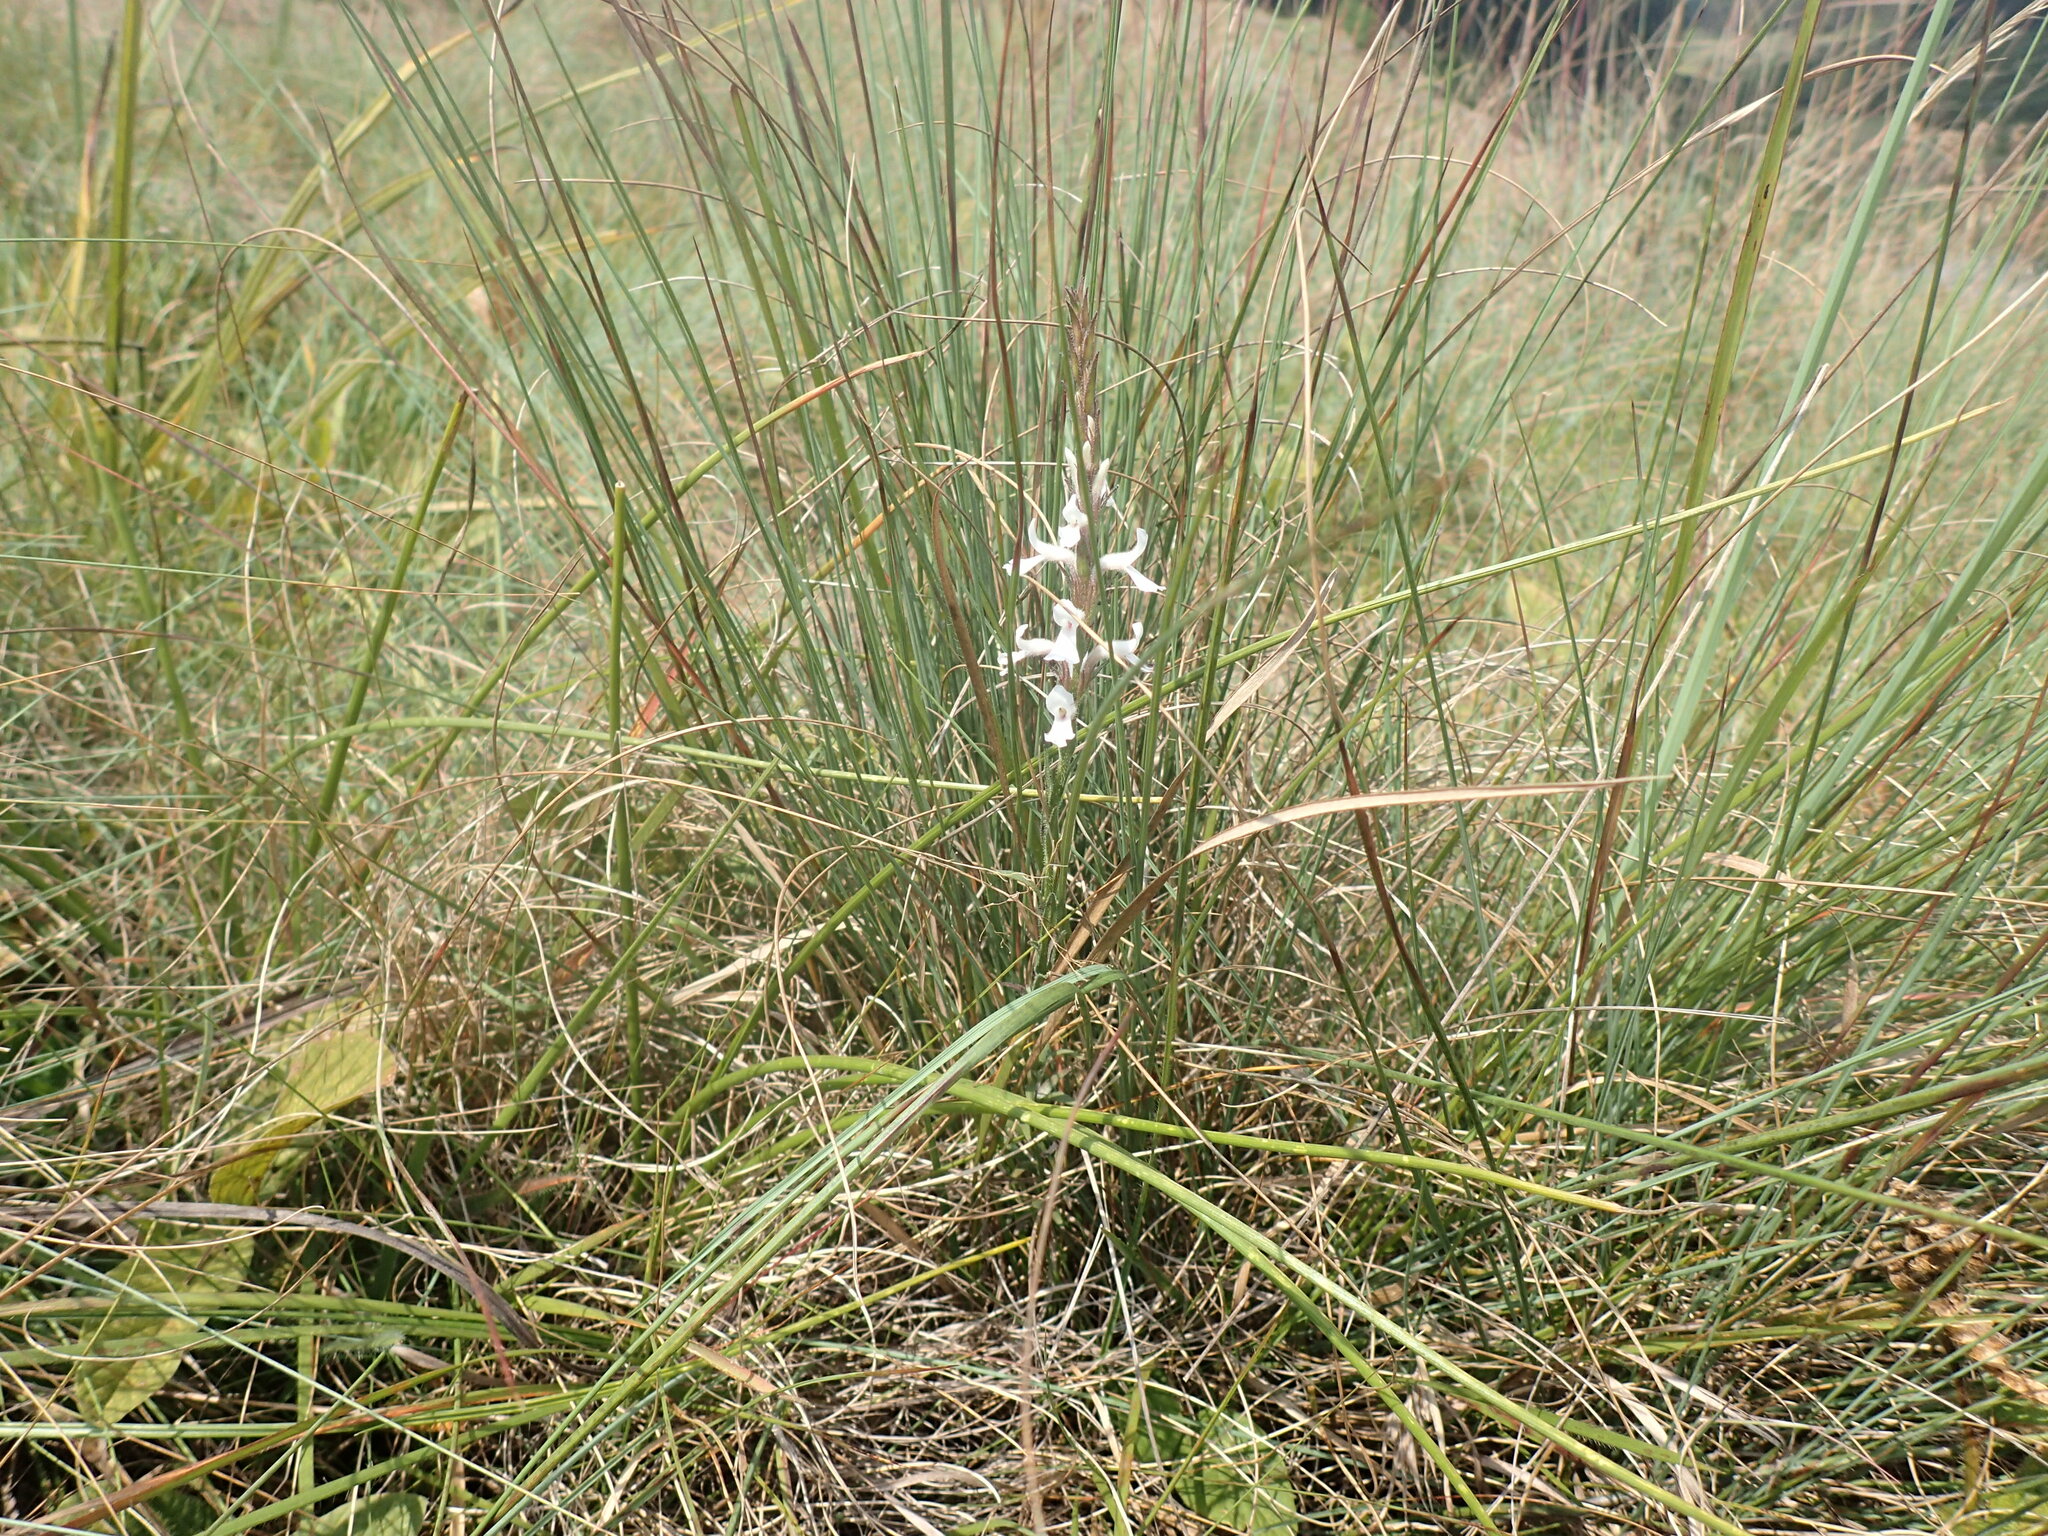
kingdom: Plantae
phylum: Tracheophyta
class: Magnoliopsida
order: Lamiales
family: Orobanchaceae
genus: Striga
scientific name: Striga bilabiata
